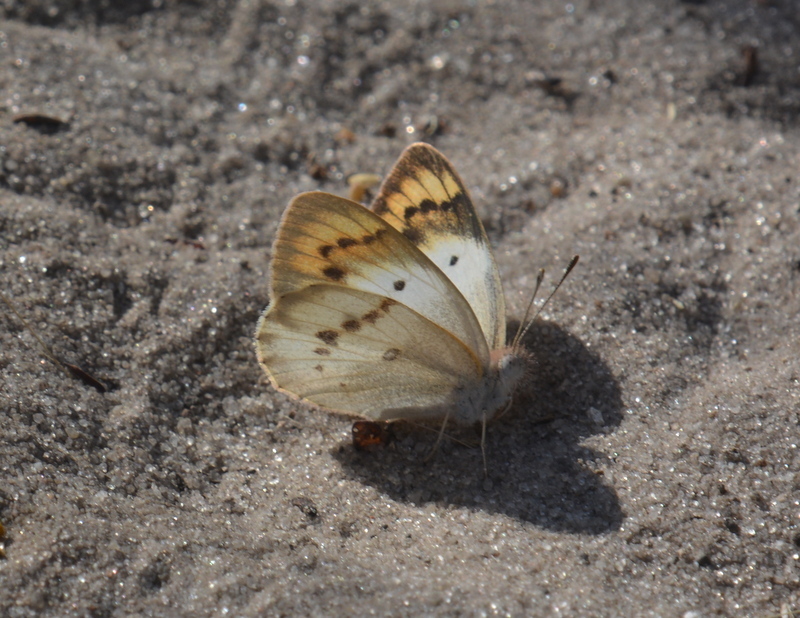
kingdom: Animalia
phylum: Arthropoda
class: Insecta
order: Lepidoptera
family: Pieridae
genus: Colotis
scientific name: Colotis annae
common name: Scarlet tip
